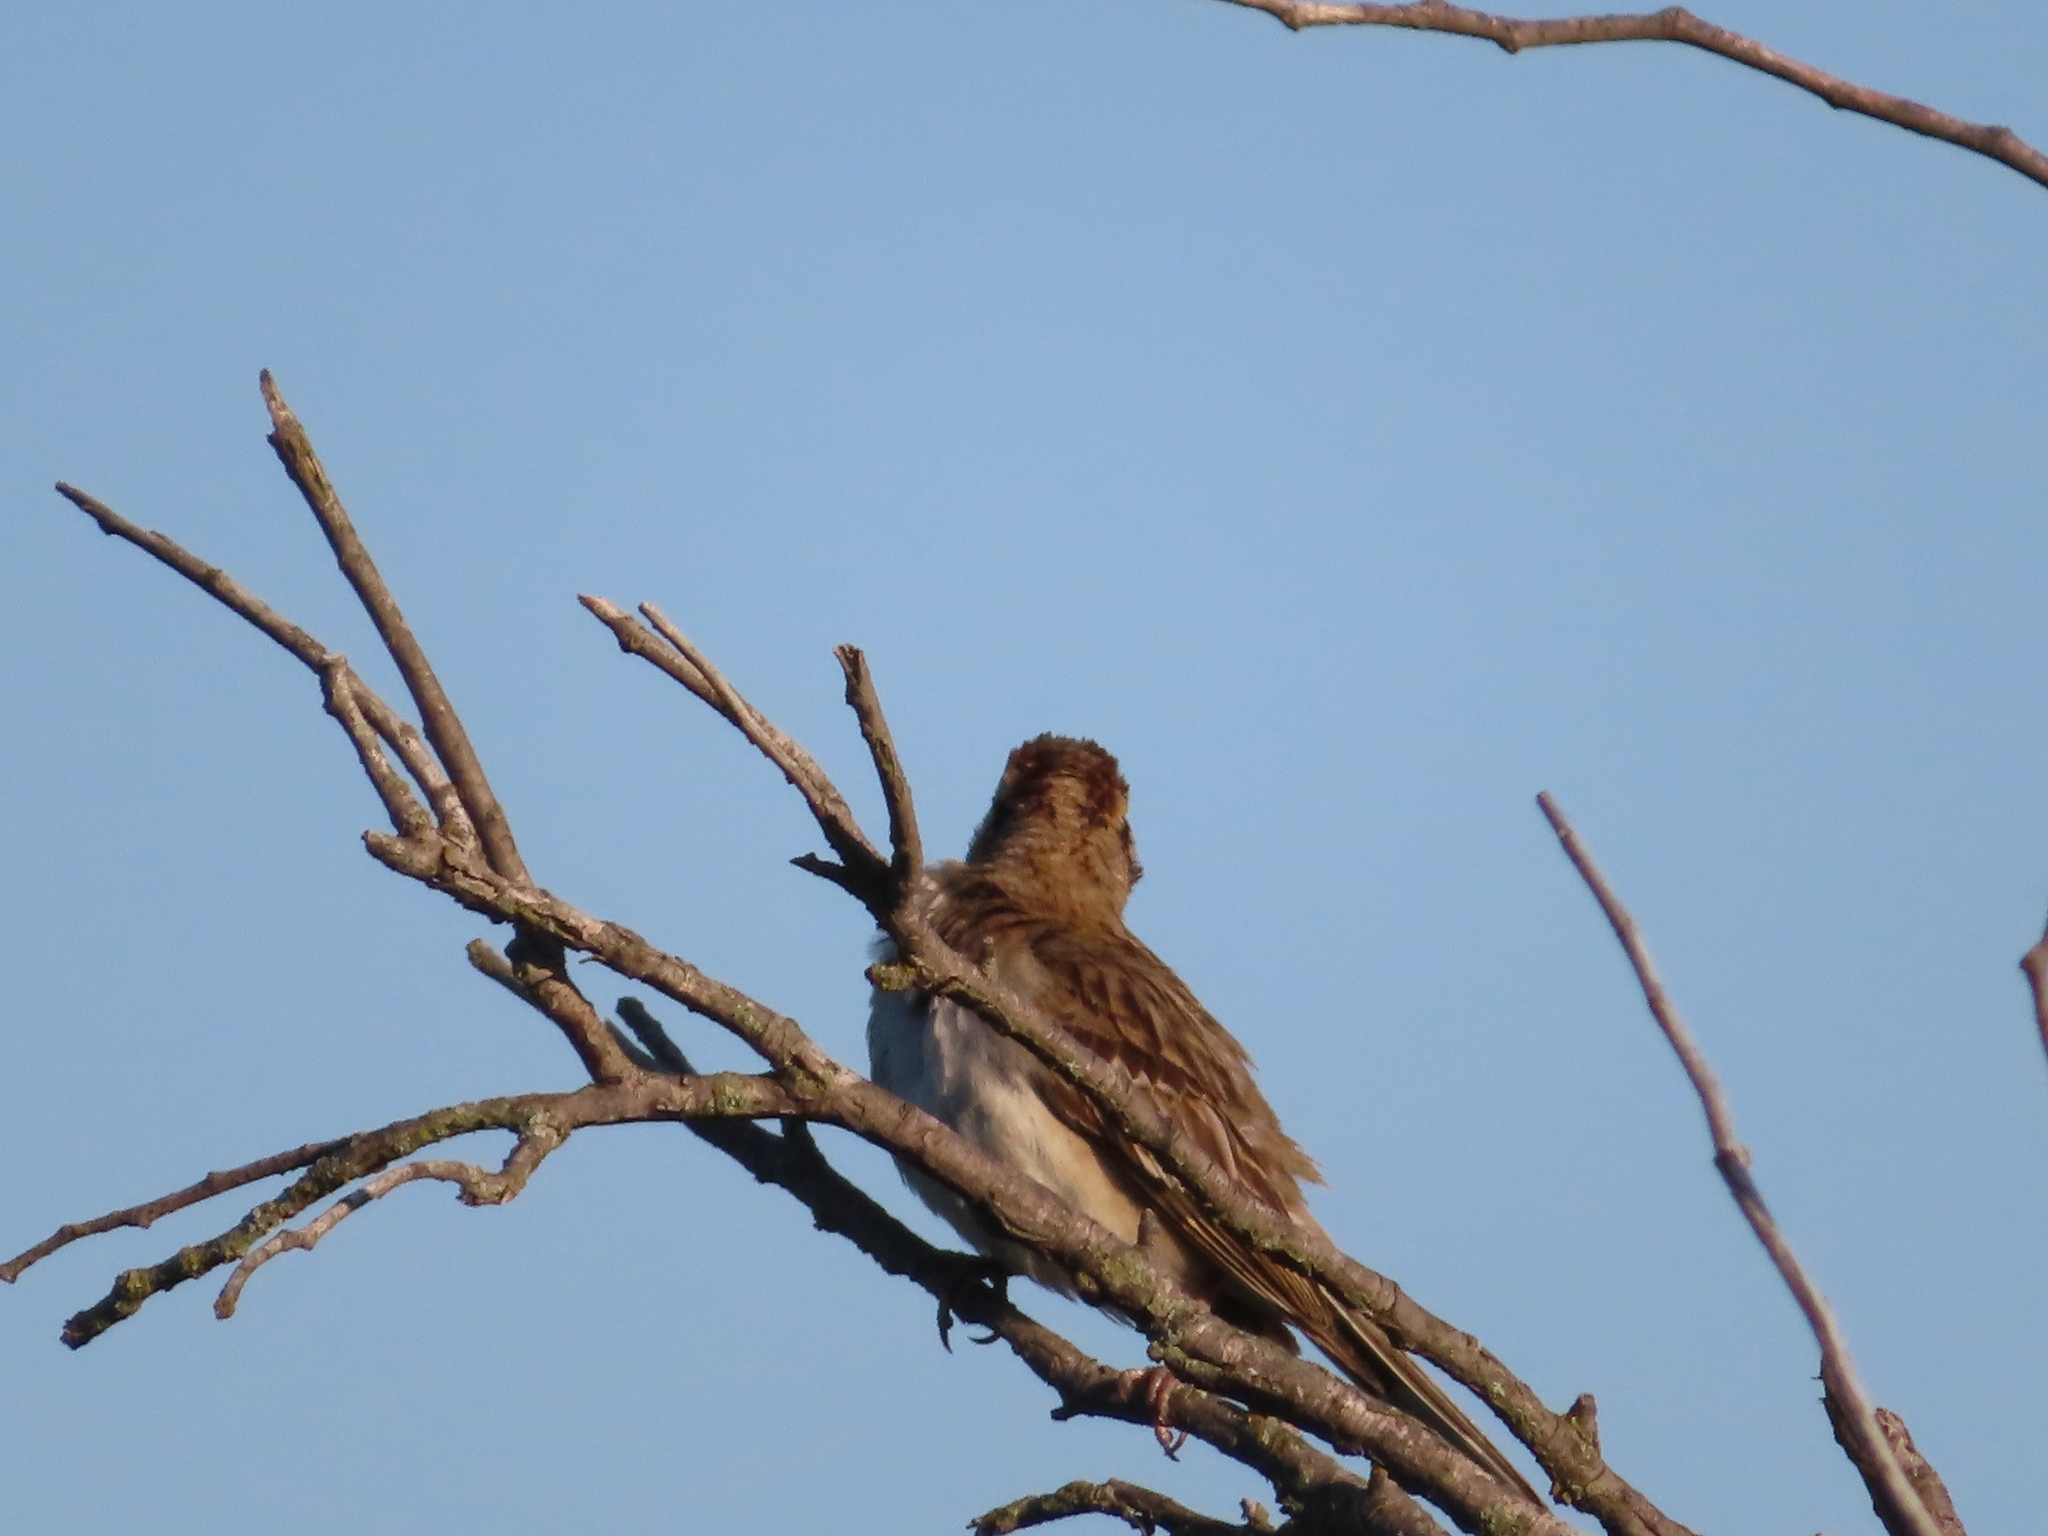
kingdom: Animalia
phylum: Chordata
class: Aves
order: Passeriformes
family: Passerellidae
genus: Chondestes
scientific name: Chondestes grammacus
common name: Lark sparrow
